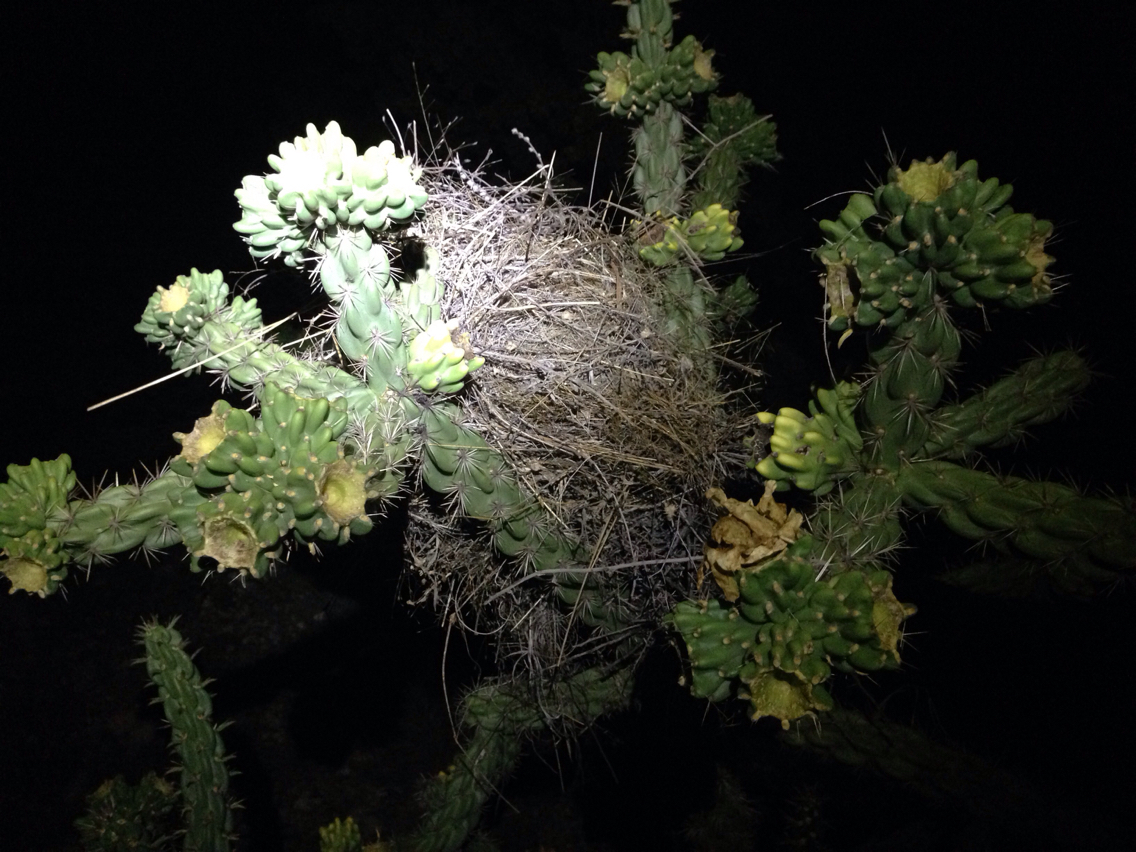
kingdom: Animalia
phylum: Chordata
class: Aves
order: Passeriformes
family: Troglodytidae
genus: Campylorhynchus
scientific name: Campylorhynchus brunneicapillus
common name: Cactus wren
